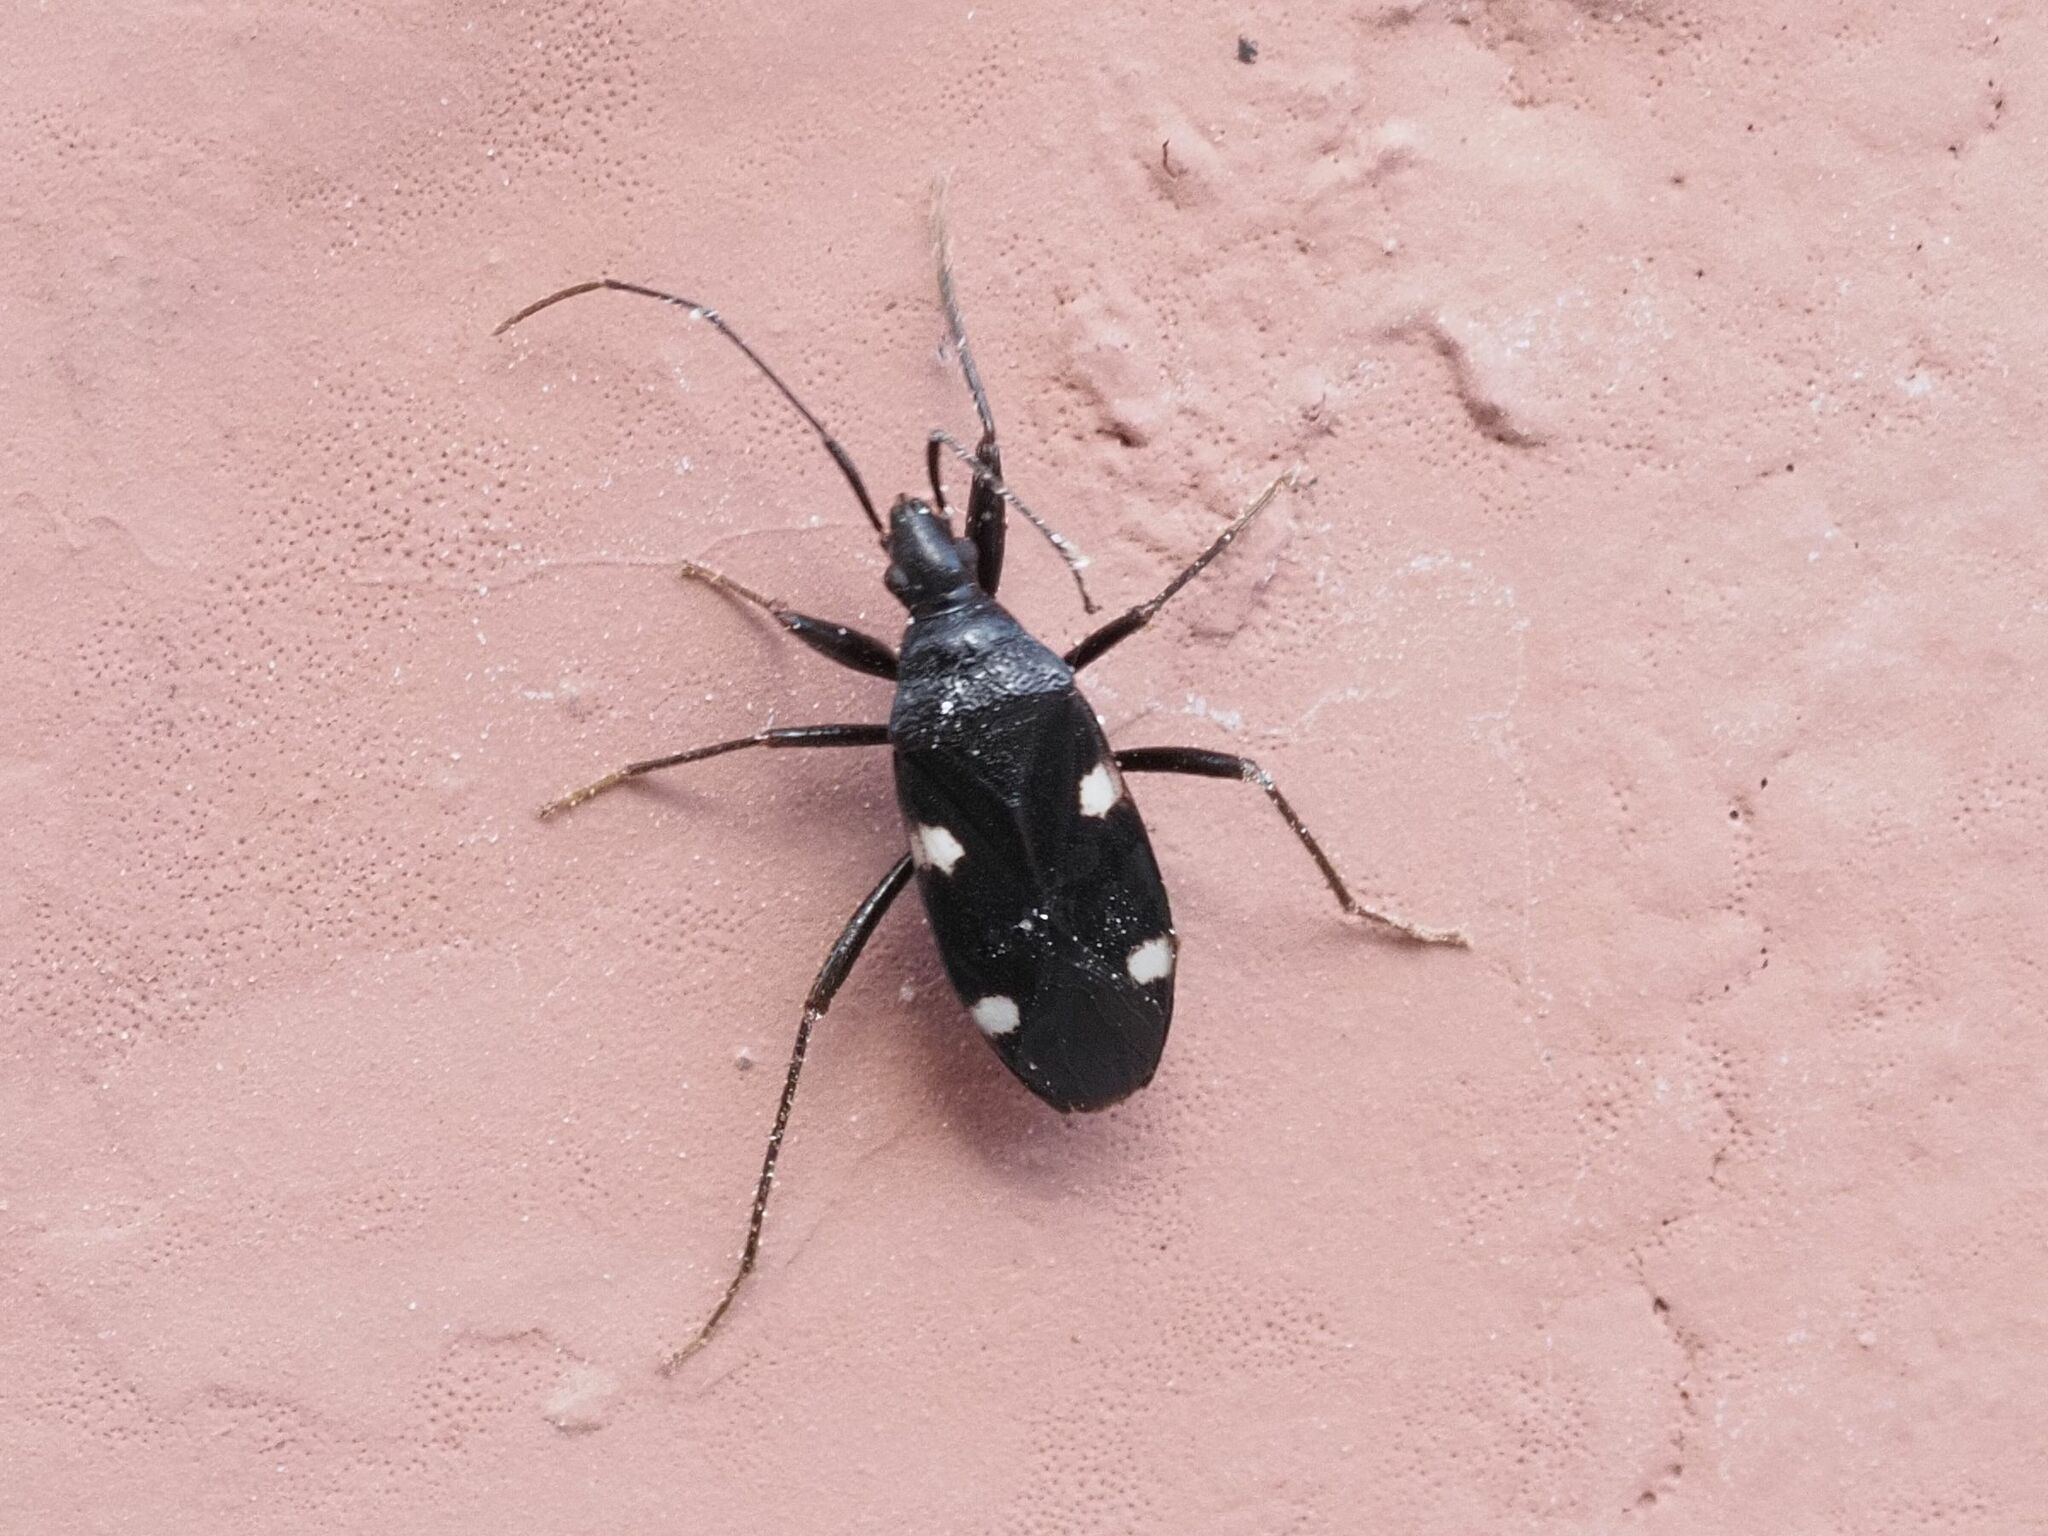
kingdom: Animalia
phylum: Arthropoda
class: Insecta
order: Hemiptera
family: Rhyparochromidae
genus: Noualhieria
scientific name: Noualhieria quadripunctata
